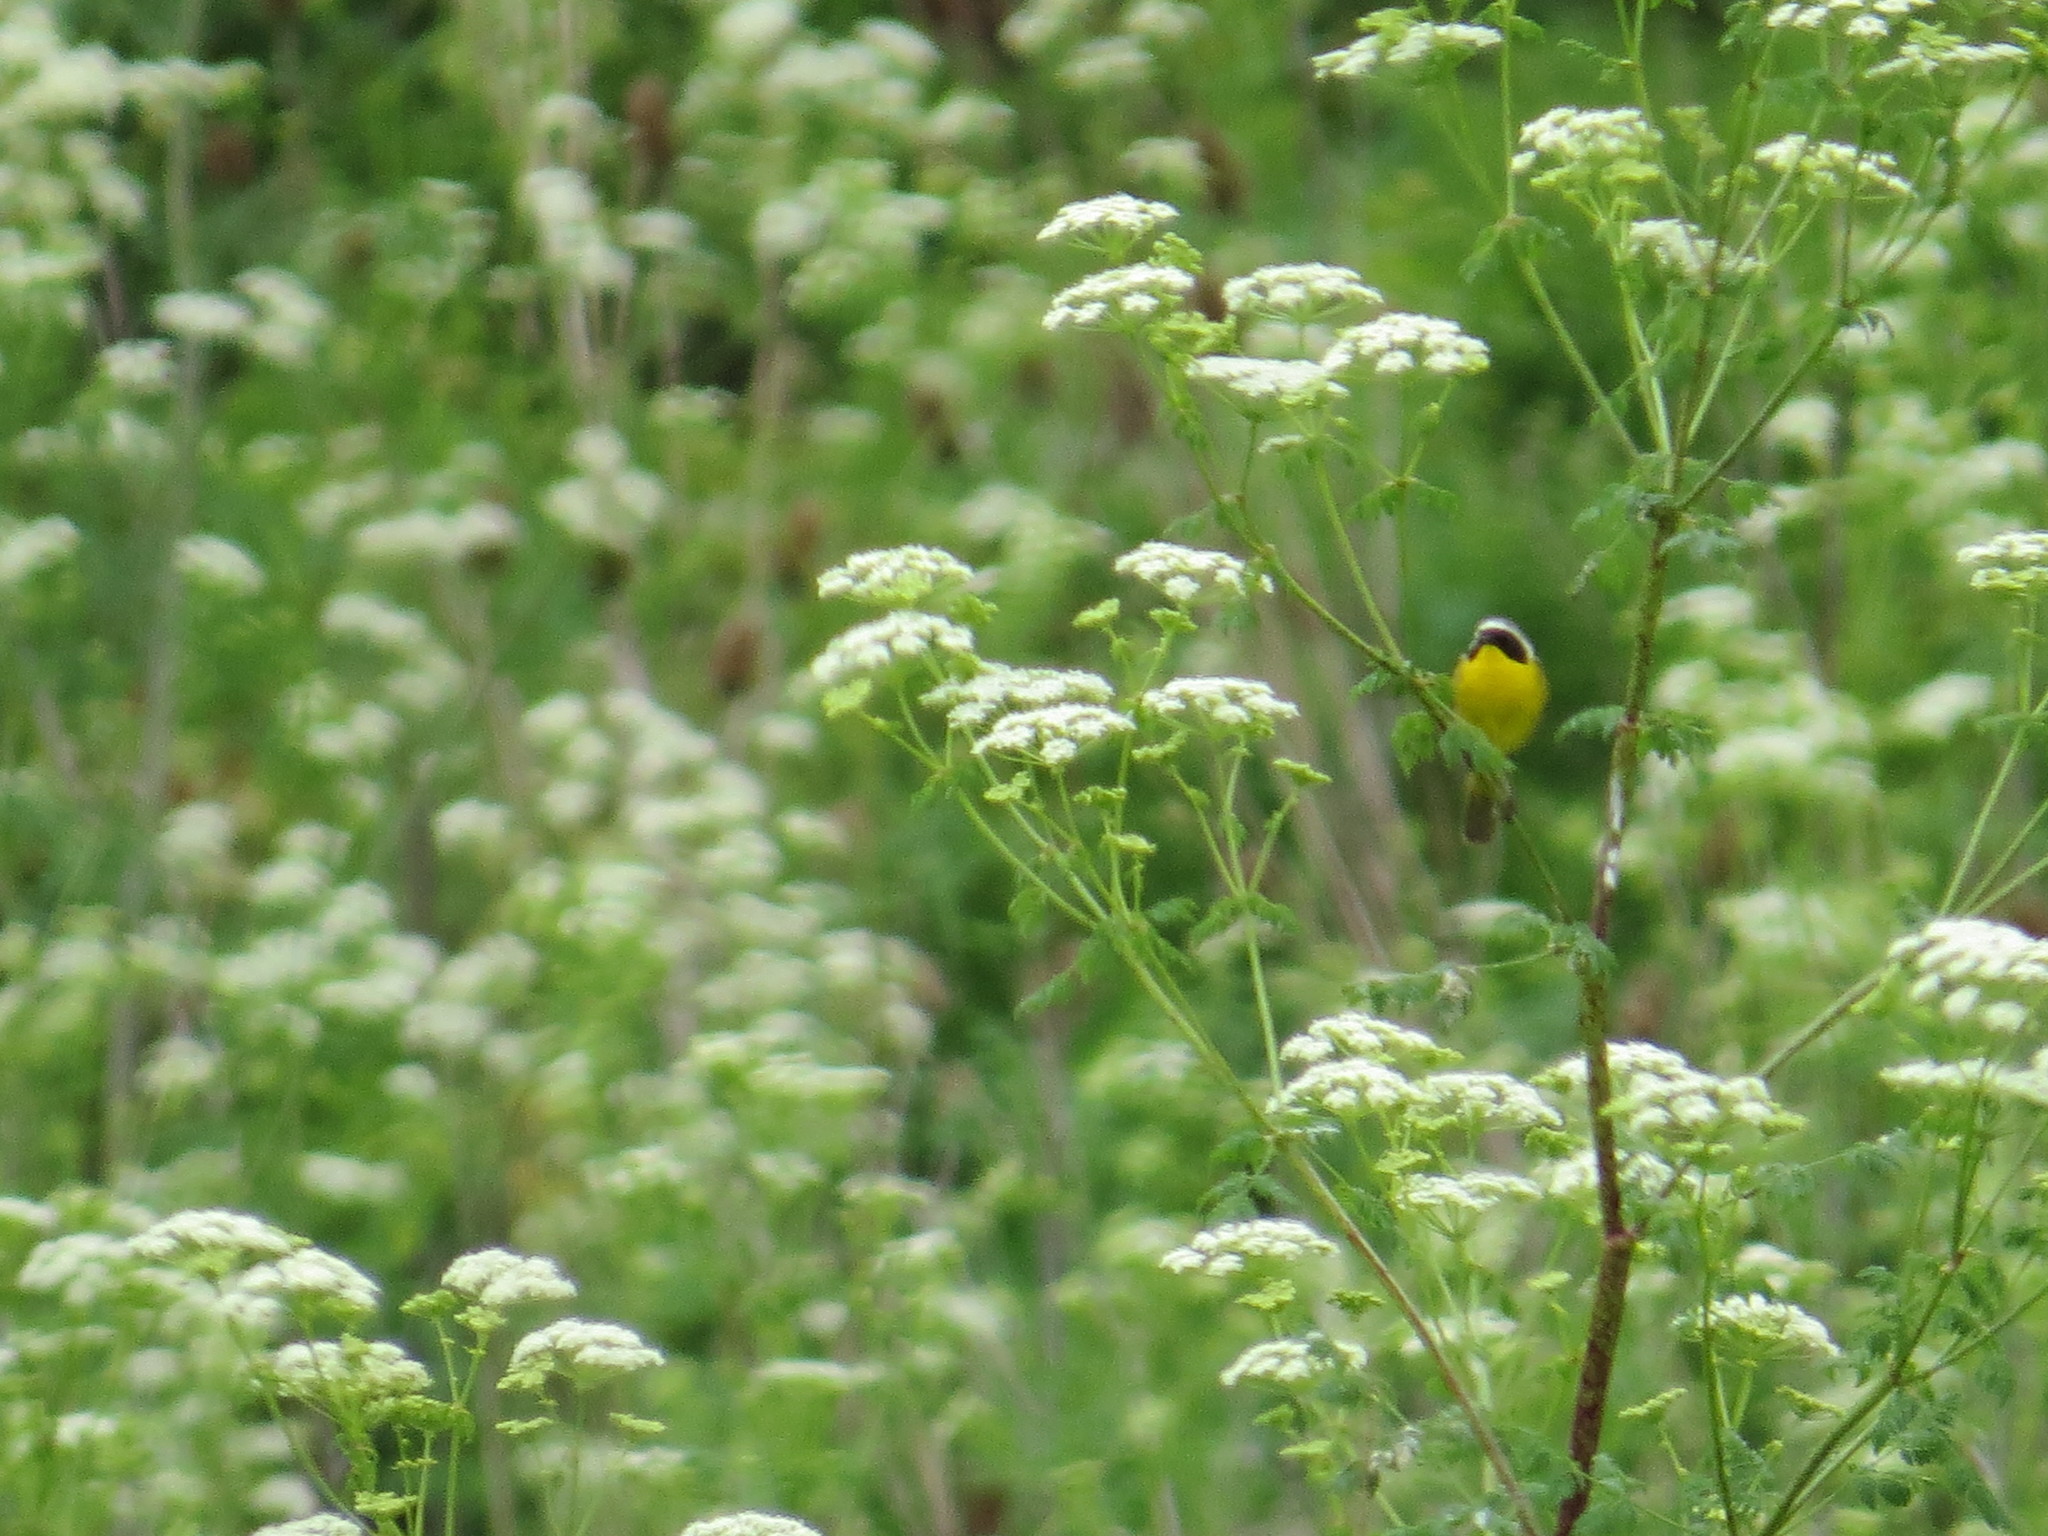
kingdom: Animalia
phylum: Chordata
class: Aves
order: Passeriformes
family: Parulidae
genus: Geothlypis
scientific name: Geothlypis trichas
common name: Common yellowthroat
